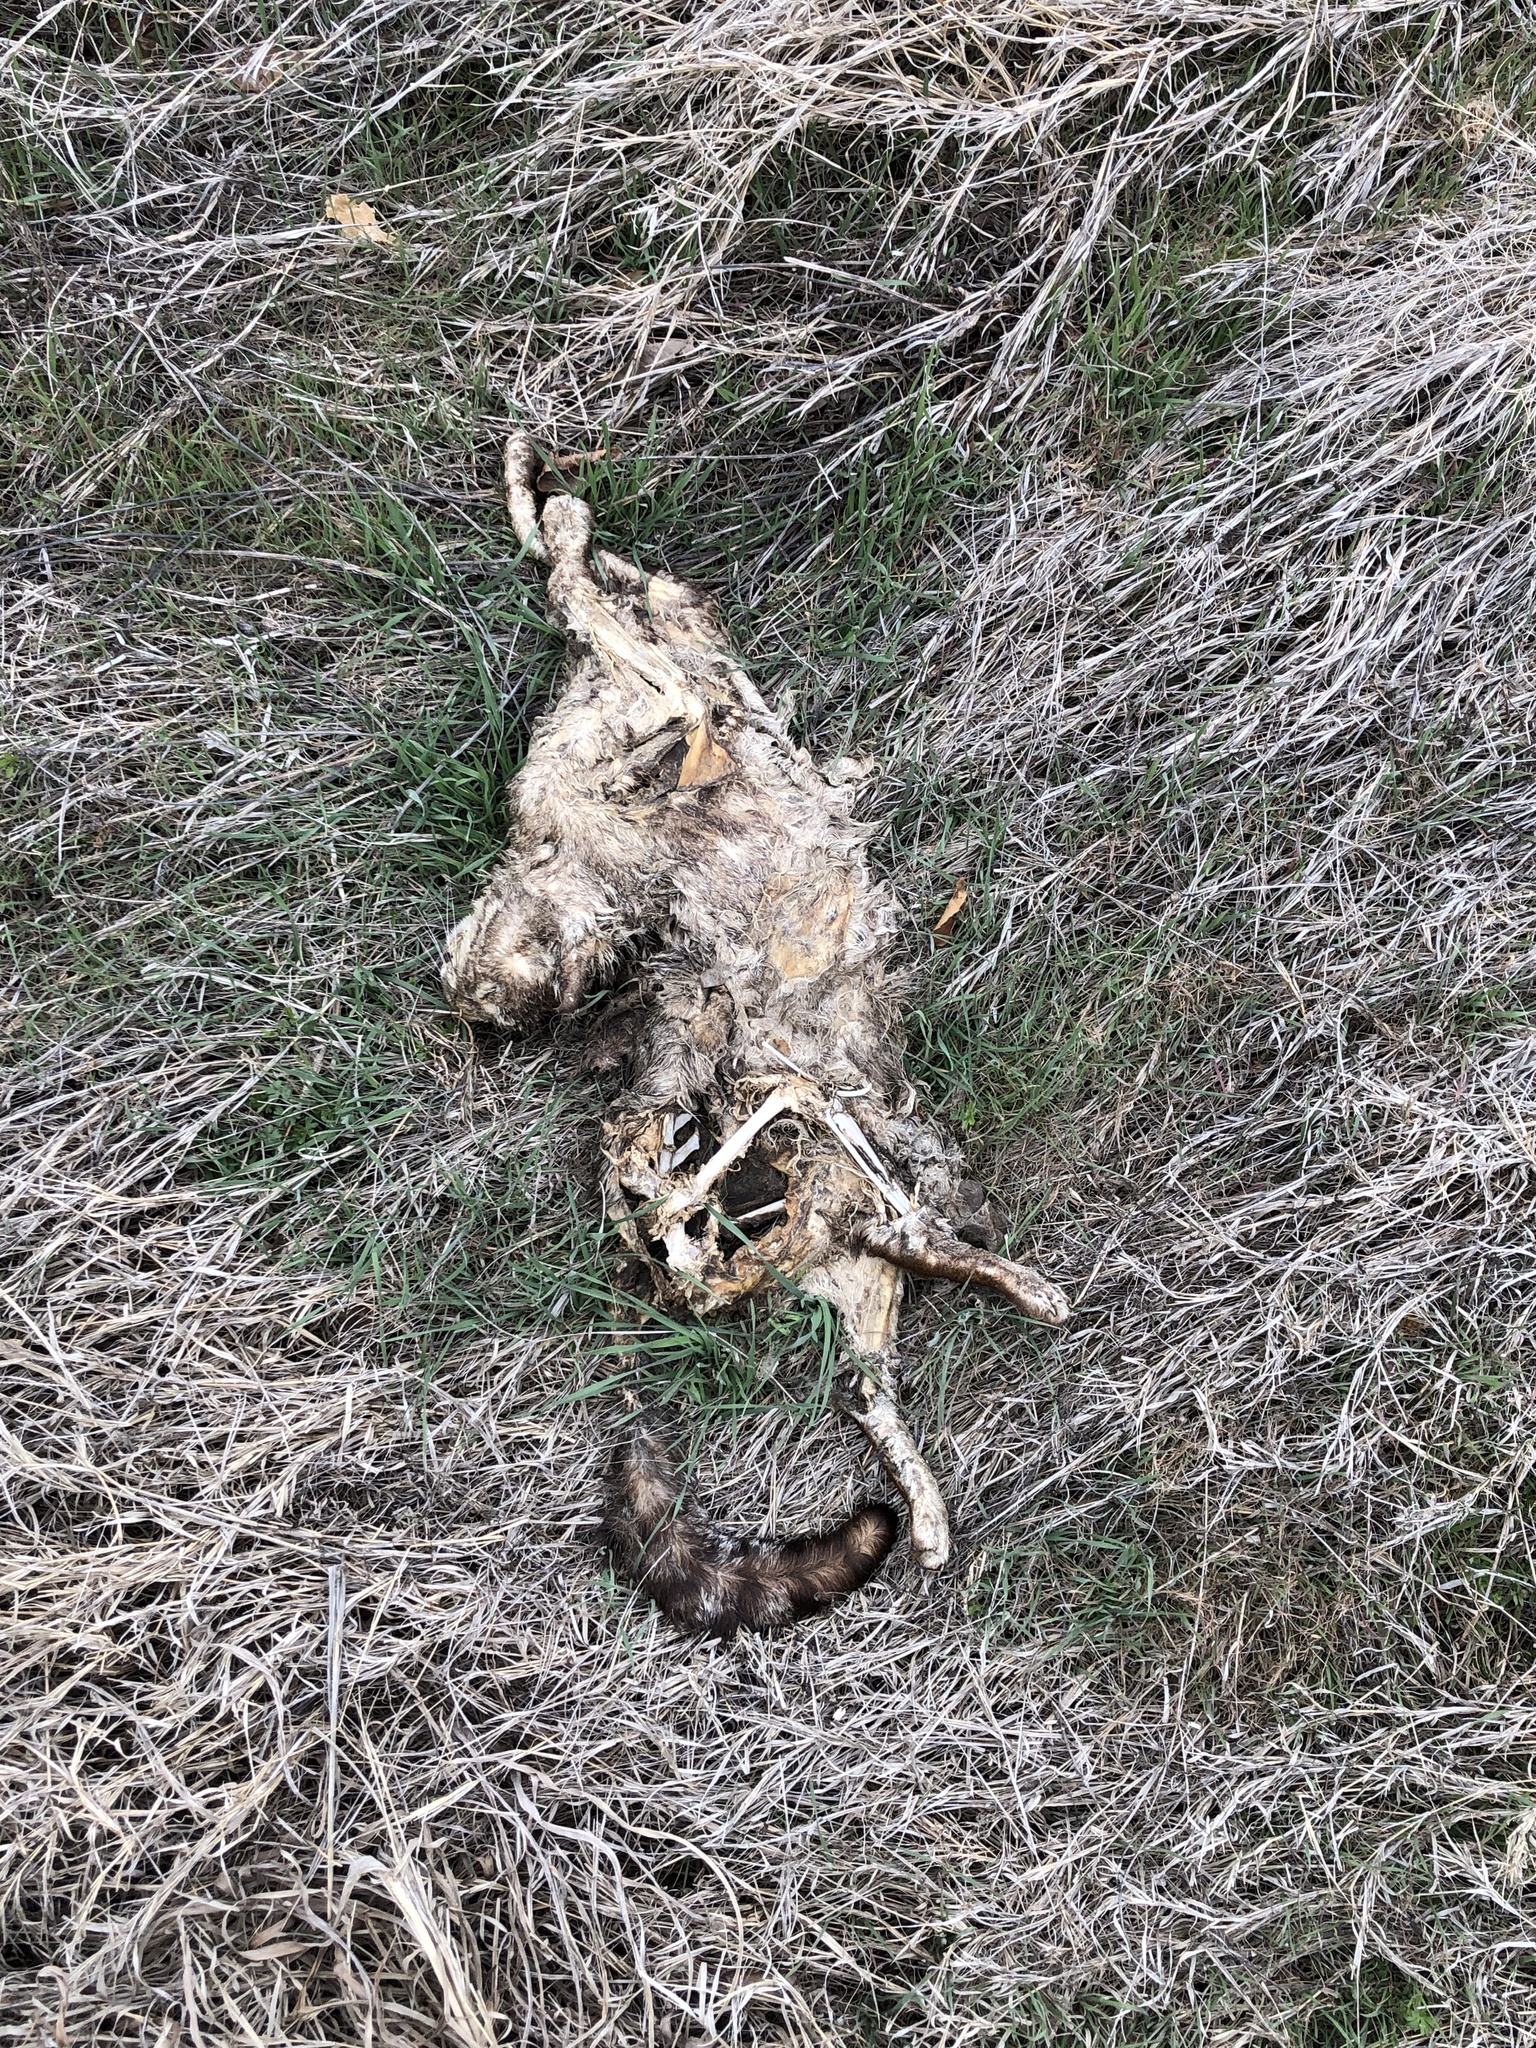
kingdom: Animalia
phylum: Chordata
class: Mammalia
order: Carnivora
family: Felidae
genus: Felis
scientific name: Felis catus
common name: Domestic cat
